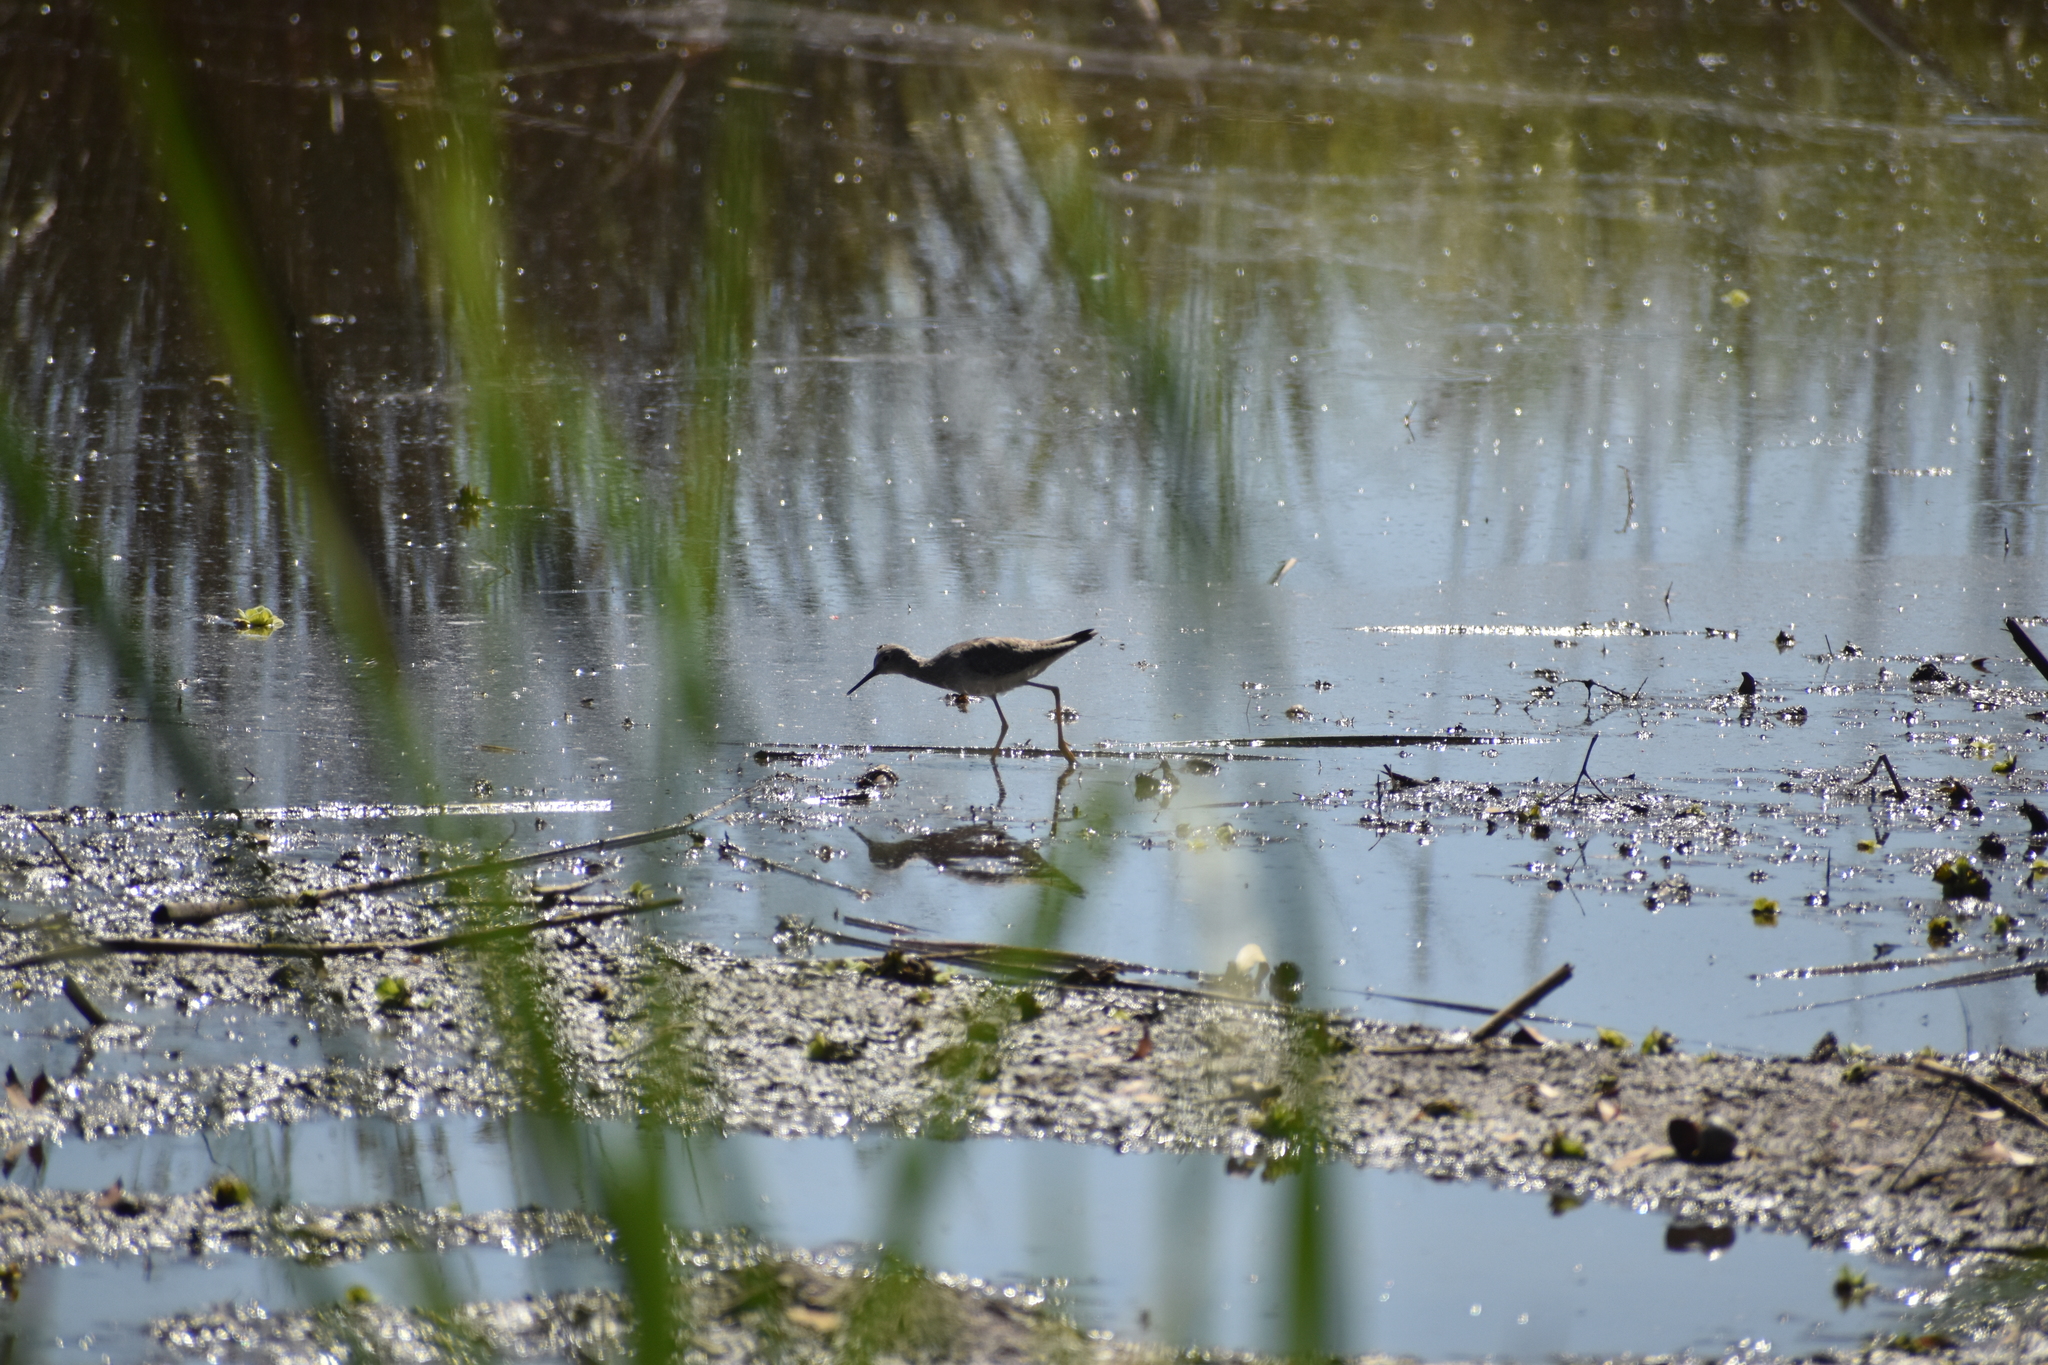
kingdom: Animalia
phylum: Chordata
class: Aves
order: Charadriiformes
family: Scolopacidae
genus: Tringa
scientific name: Tringa flavipes
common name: Lesser yellowlegs
